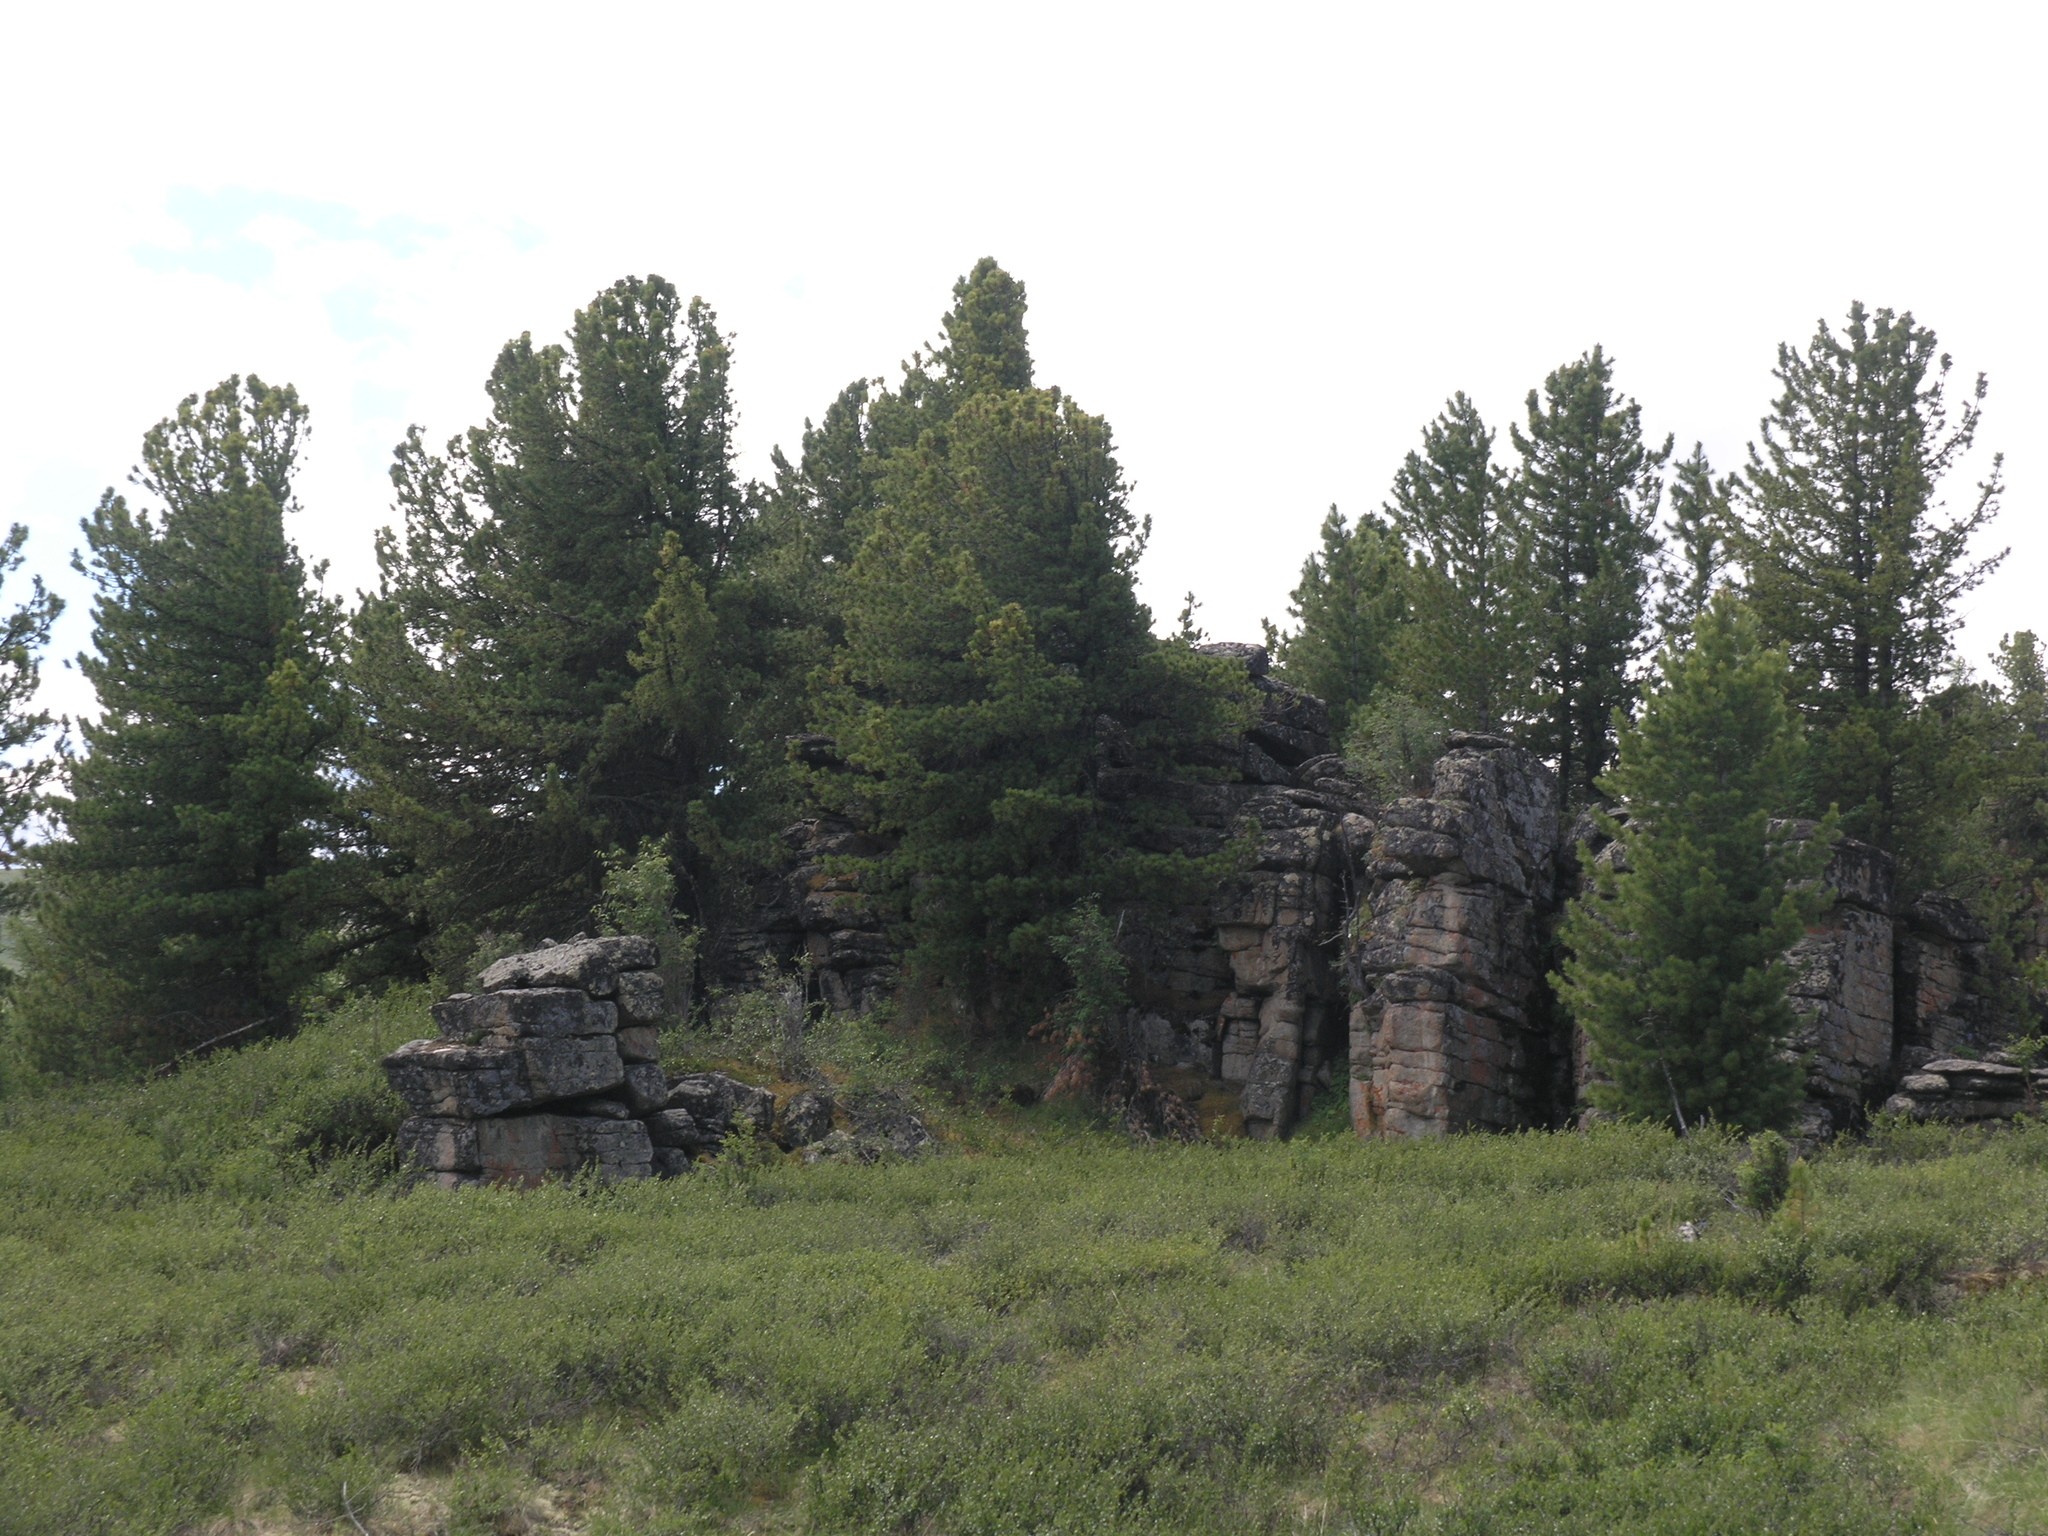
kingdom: Plantae
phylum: Tracheophyta
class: Pinopsida
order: Pinales
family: Pinaceae
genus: Pinus
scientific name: Pinus sibirica
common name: Siberian pine
